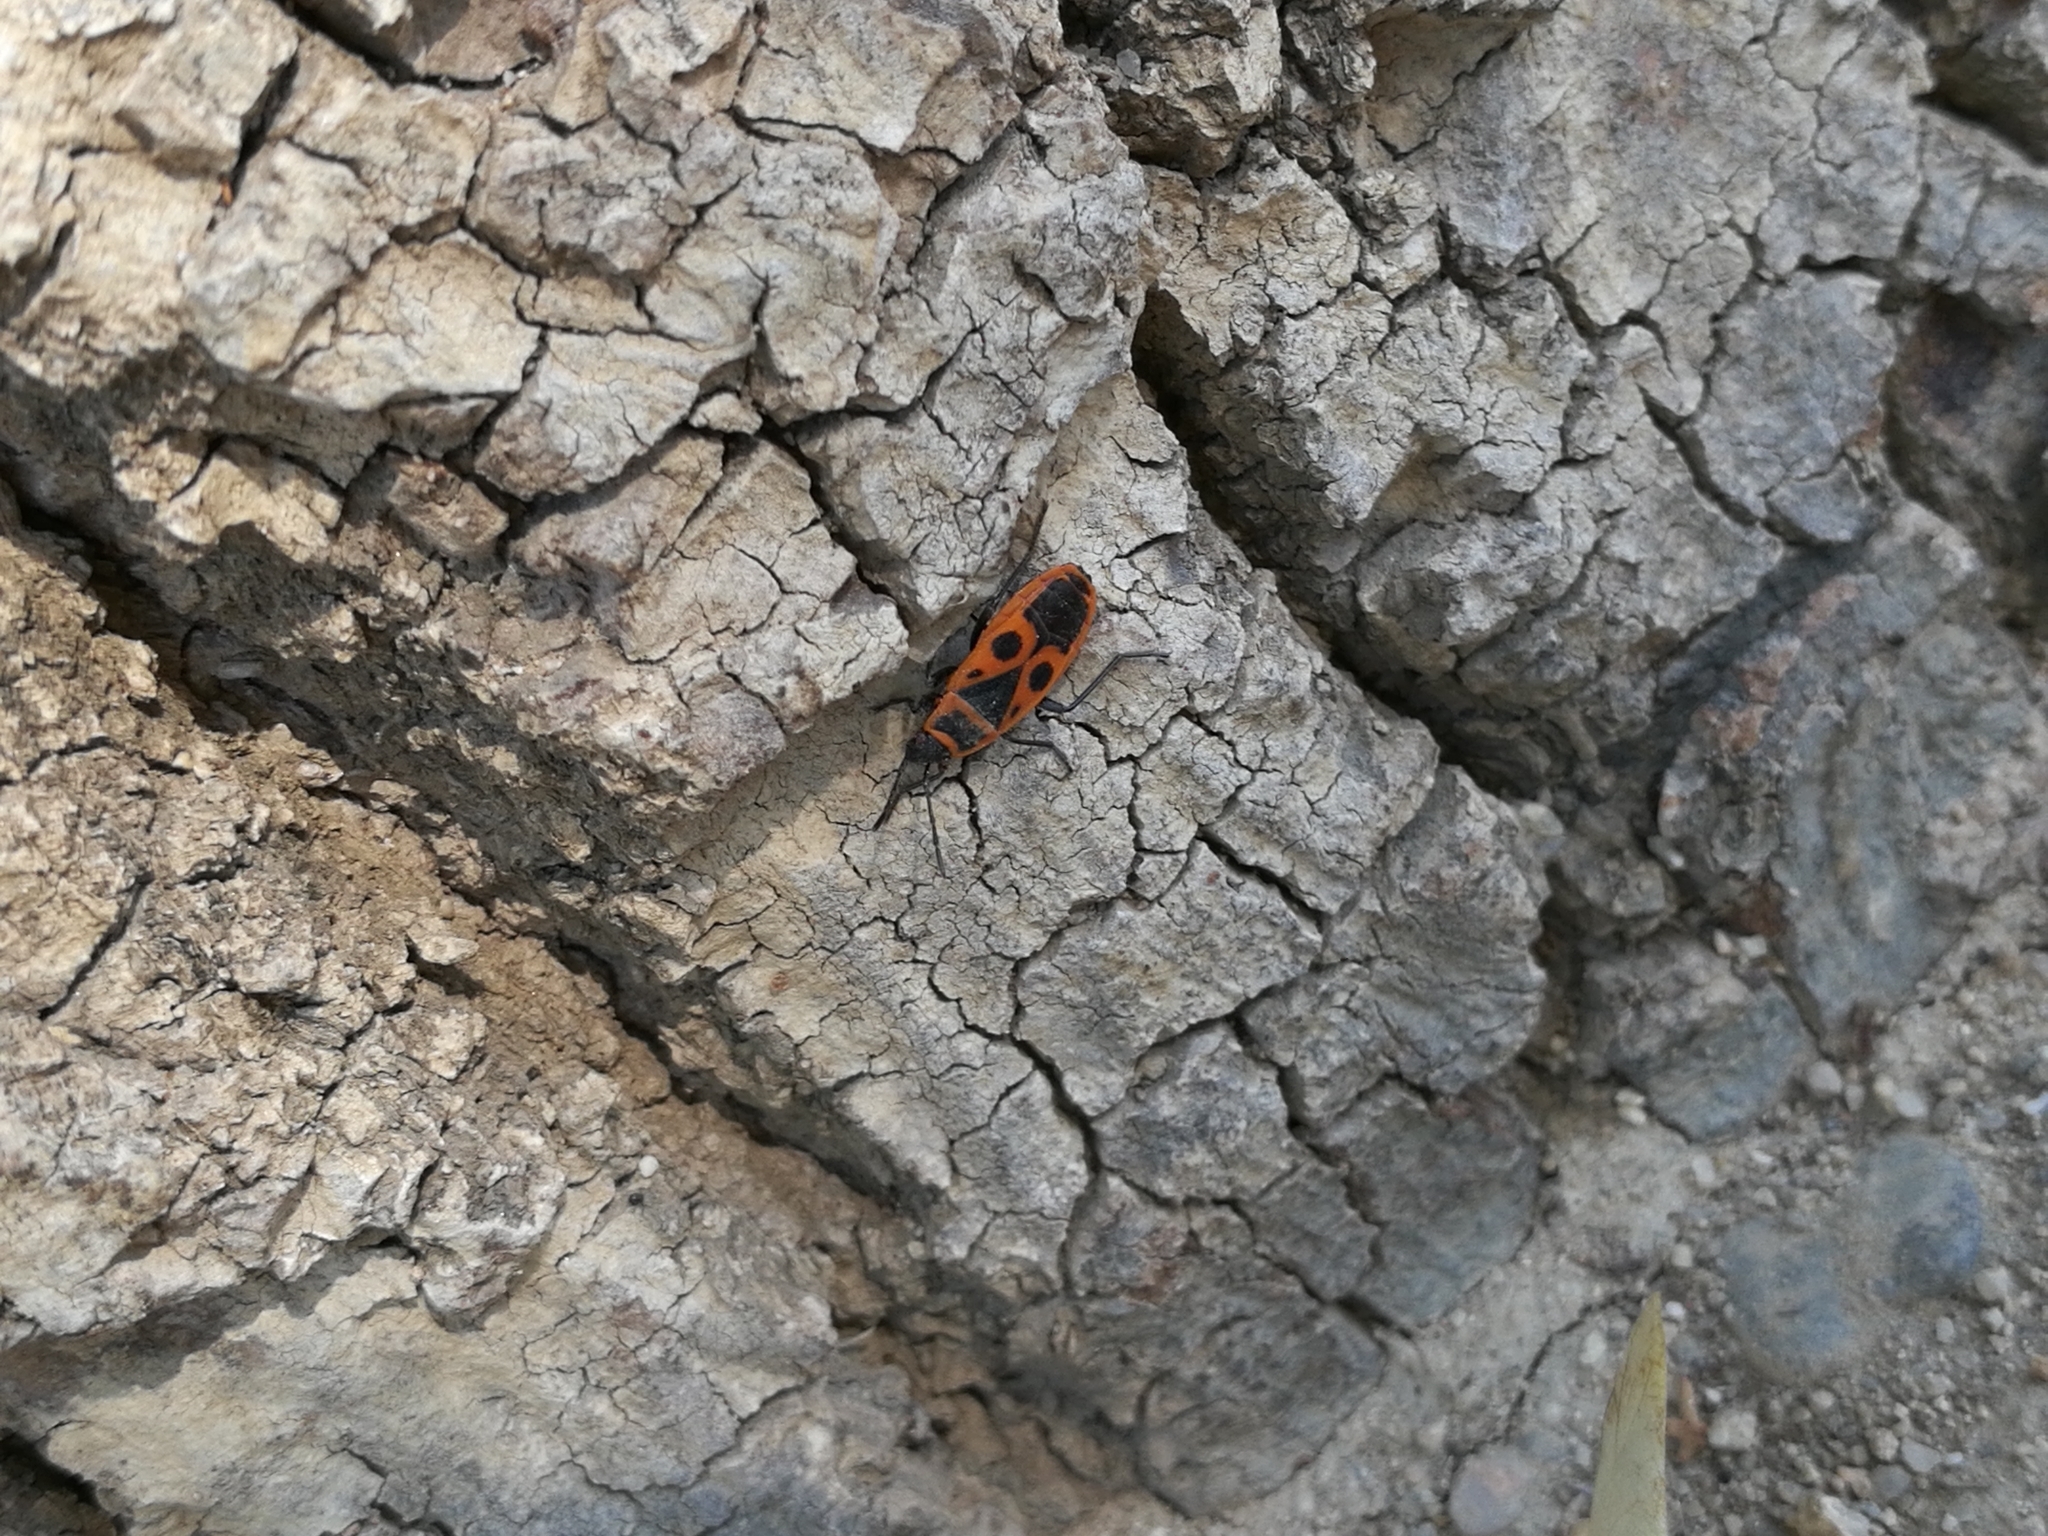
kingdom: Animalia
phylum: Arthropoda
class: Insecta
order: Hemiptera
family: Pyrrhocoridae
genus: Pyrrhocoris
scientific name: Pyrrhocoris apterus
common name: Firebug
